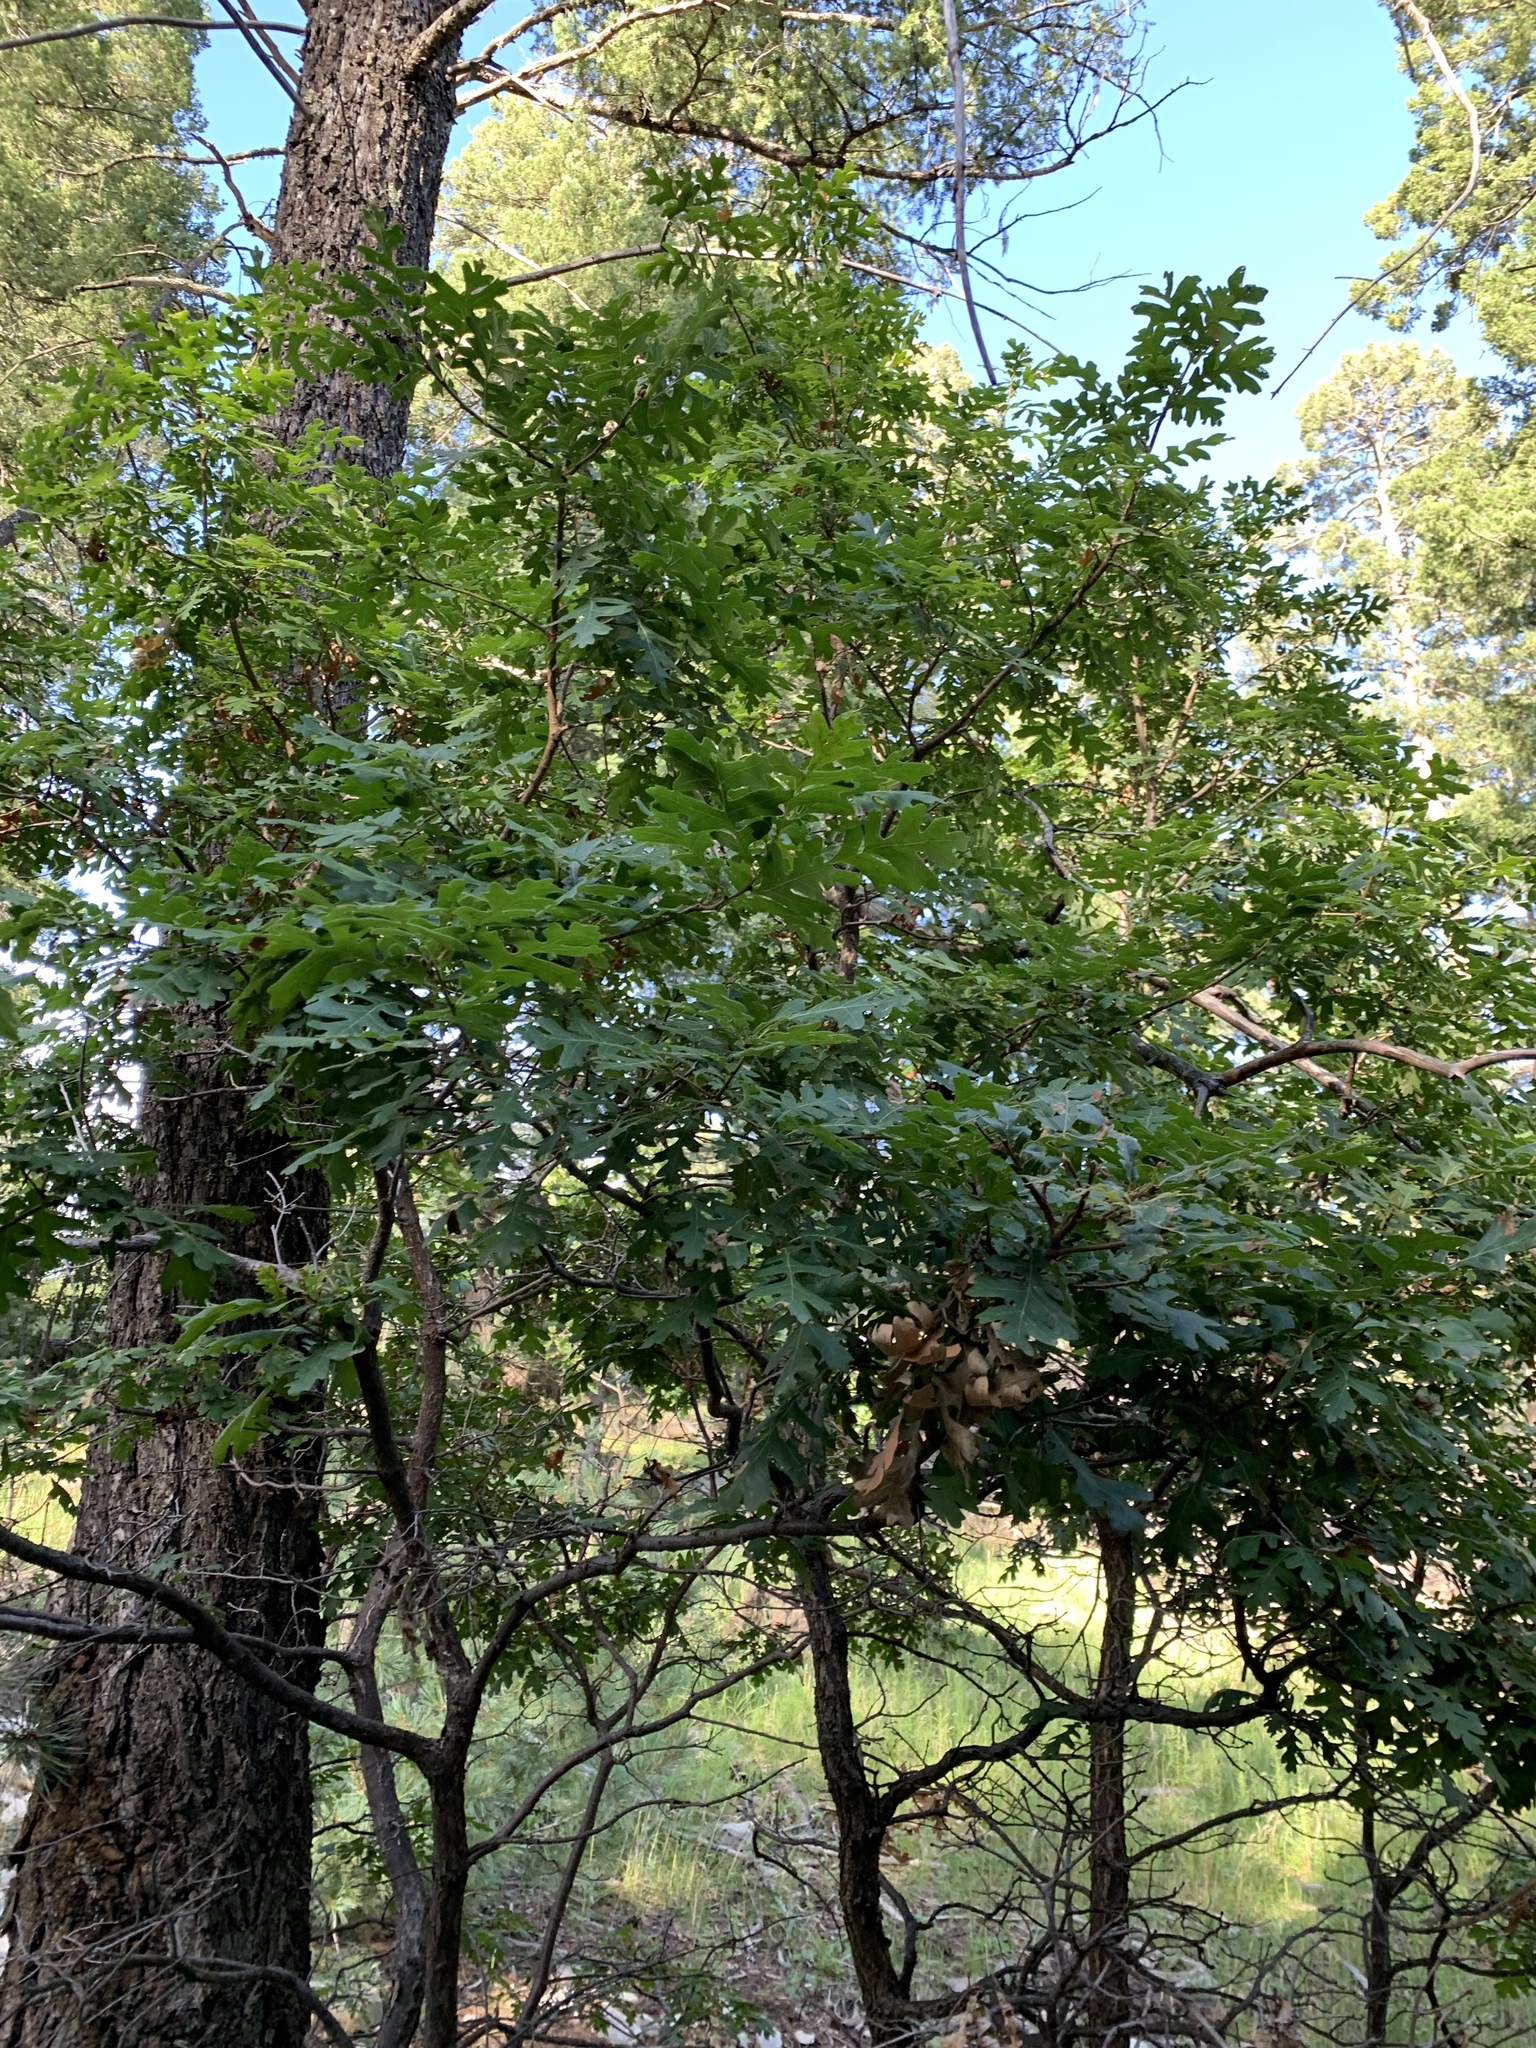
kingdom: Plantae
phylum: Tracheophyta
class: Magnoliopsida
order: Fagales
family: Fagaceae
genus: Quercus
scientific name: Quercus gambelii
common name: Gambel oak
